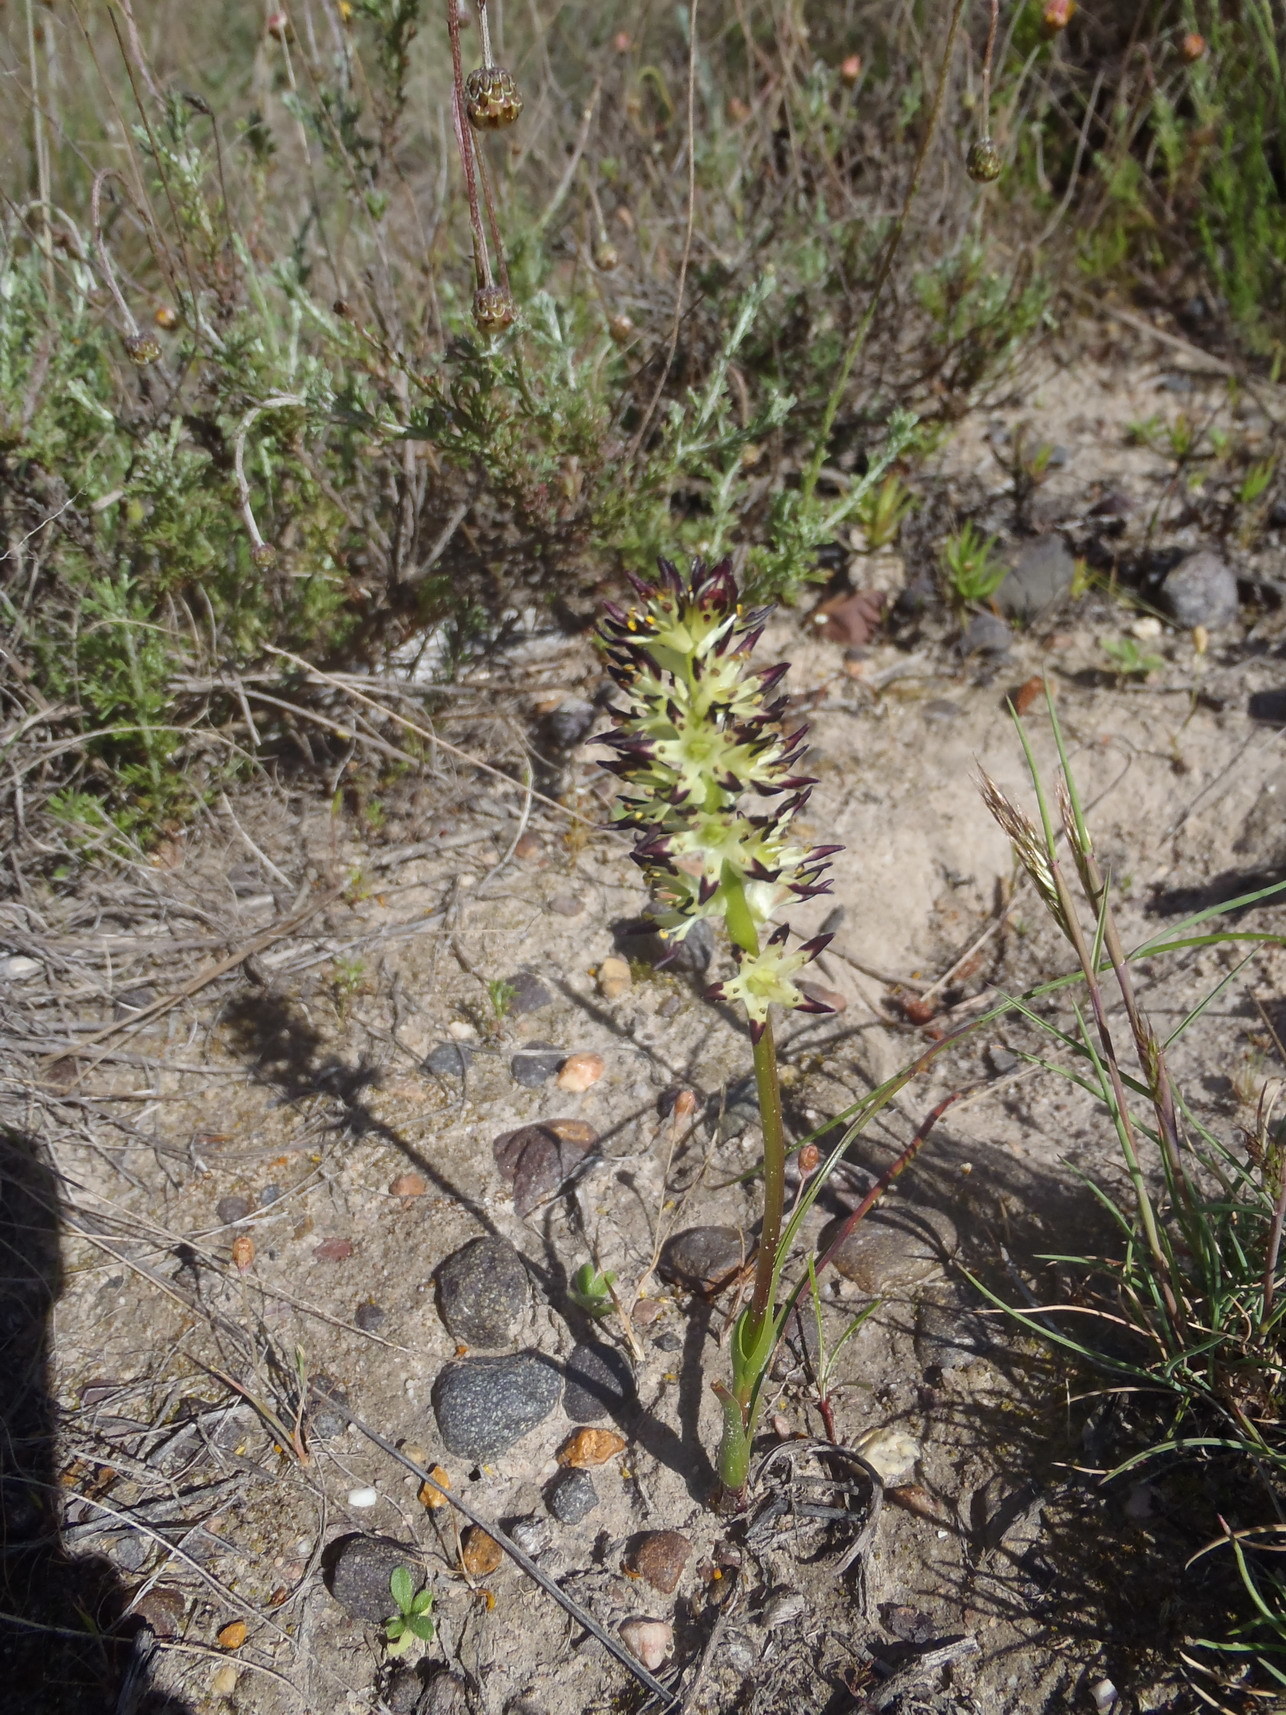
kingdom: Plantae
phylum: Tracheophyta
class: Liliopsida
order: Liliales
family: Colchicaceae
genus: Wurmbea
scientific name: Wurmbea spicata
